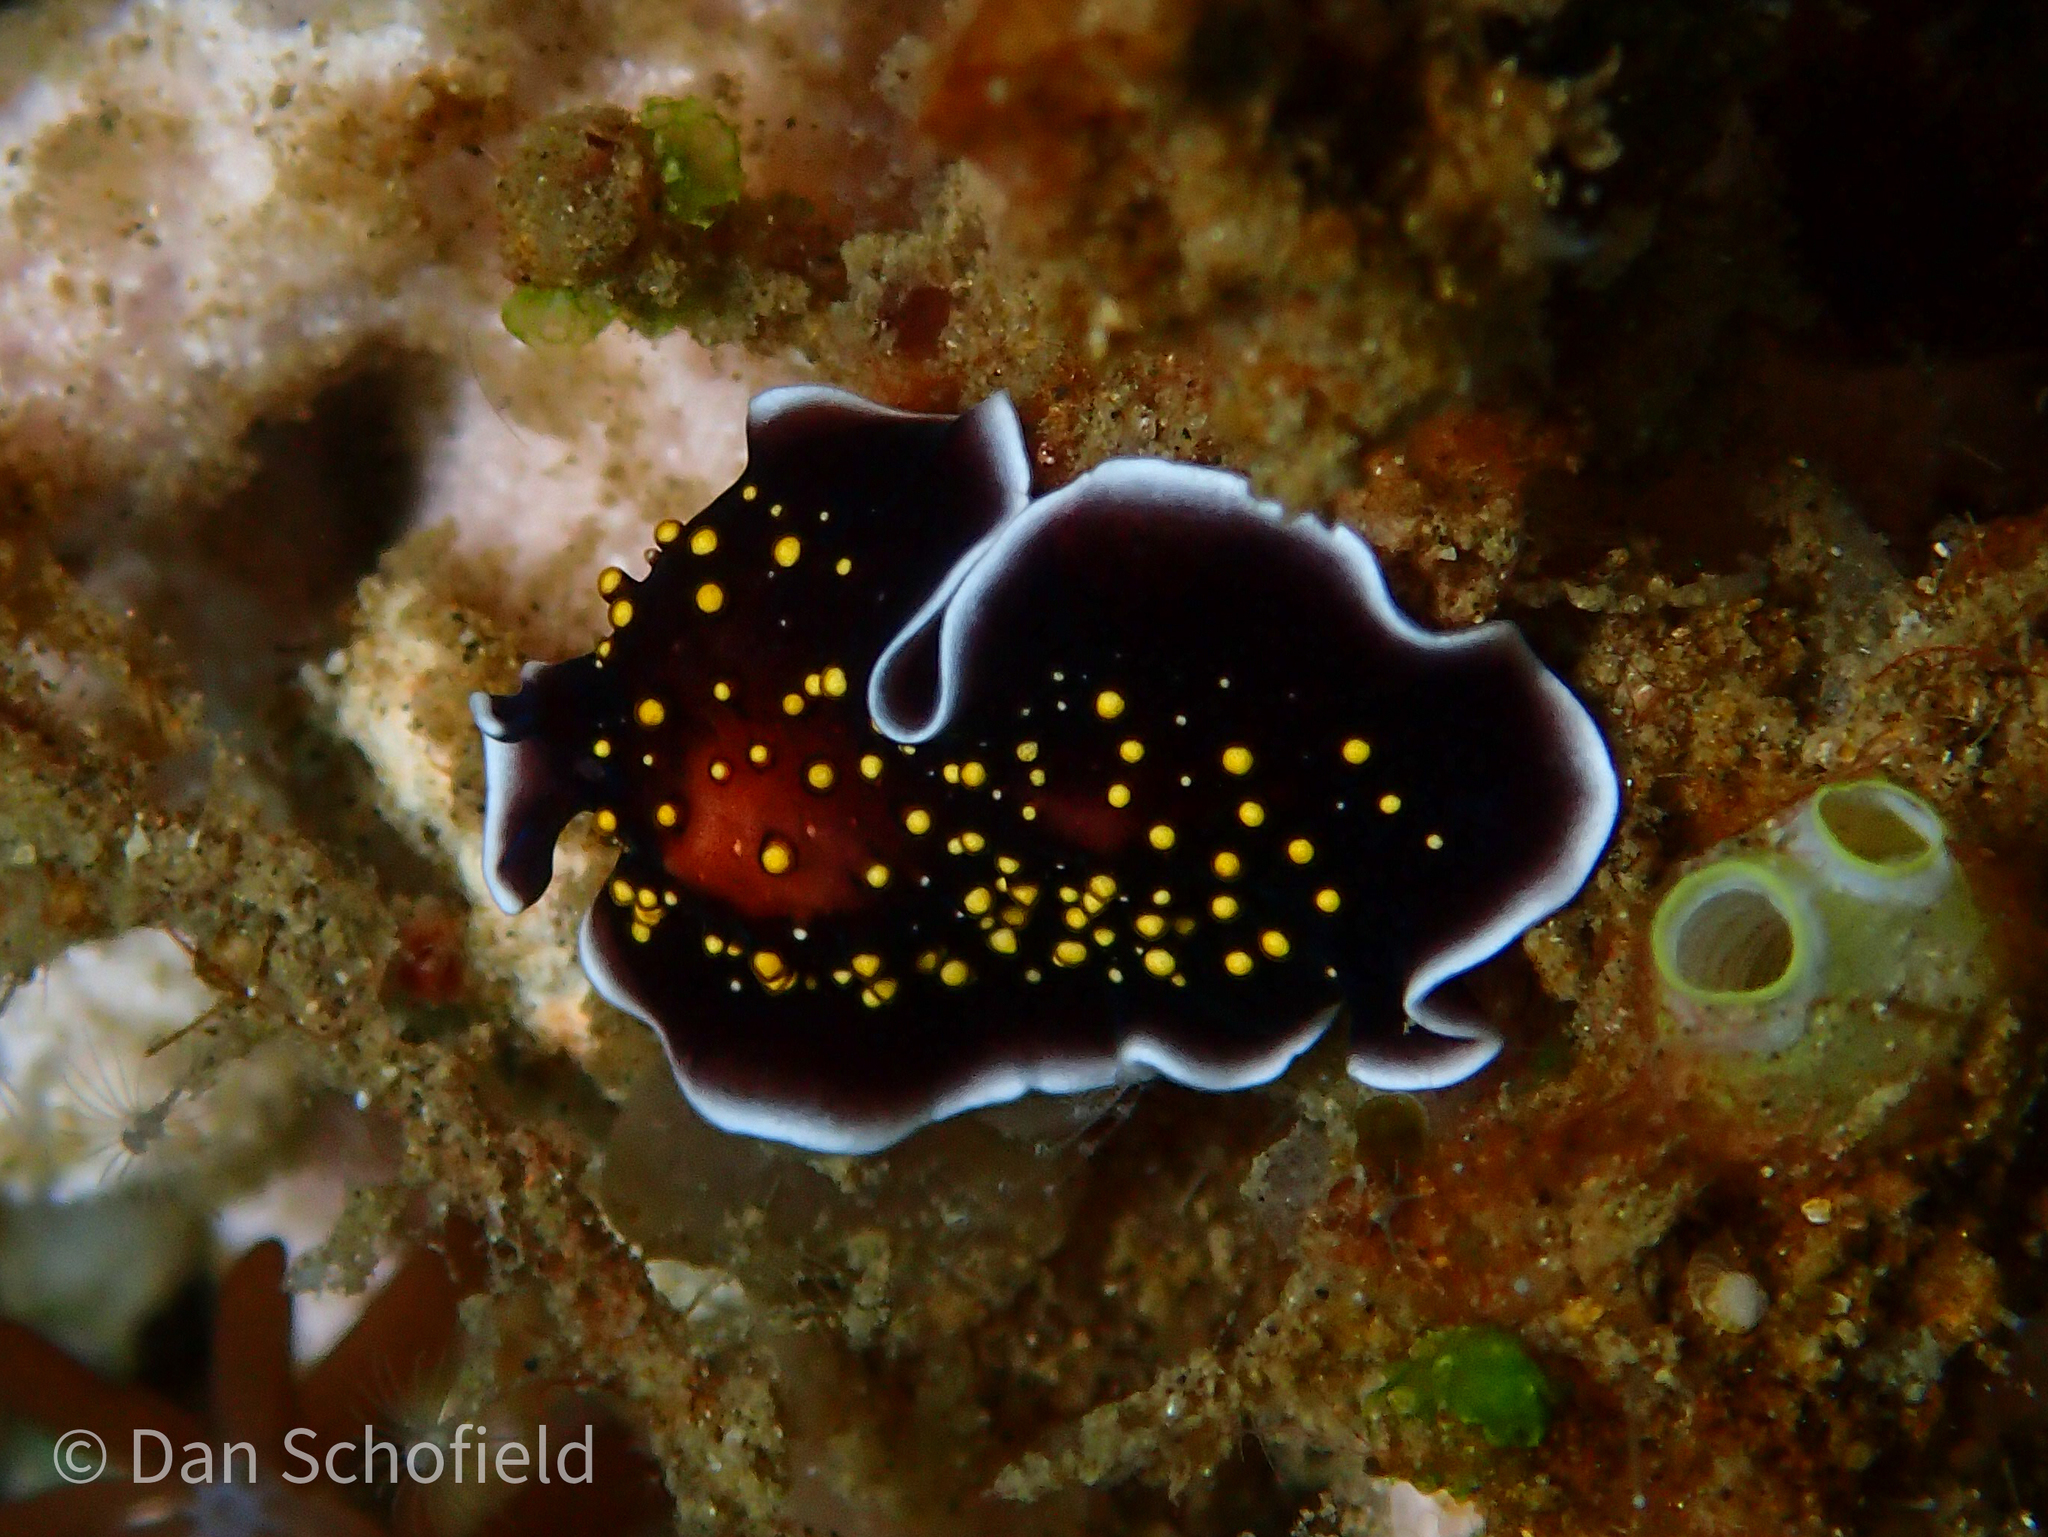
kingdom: Animalia
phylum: Platyhelminthes
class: Turbellaria
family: Pseudocerotidae
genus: Thysanozoon
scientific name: Thysanozoon nigropapillosum
